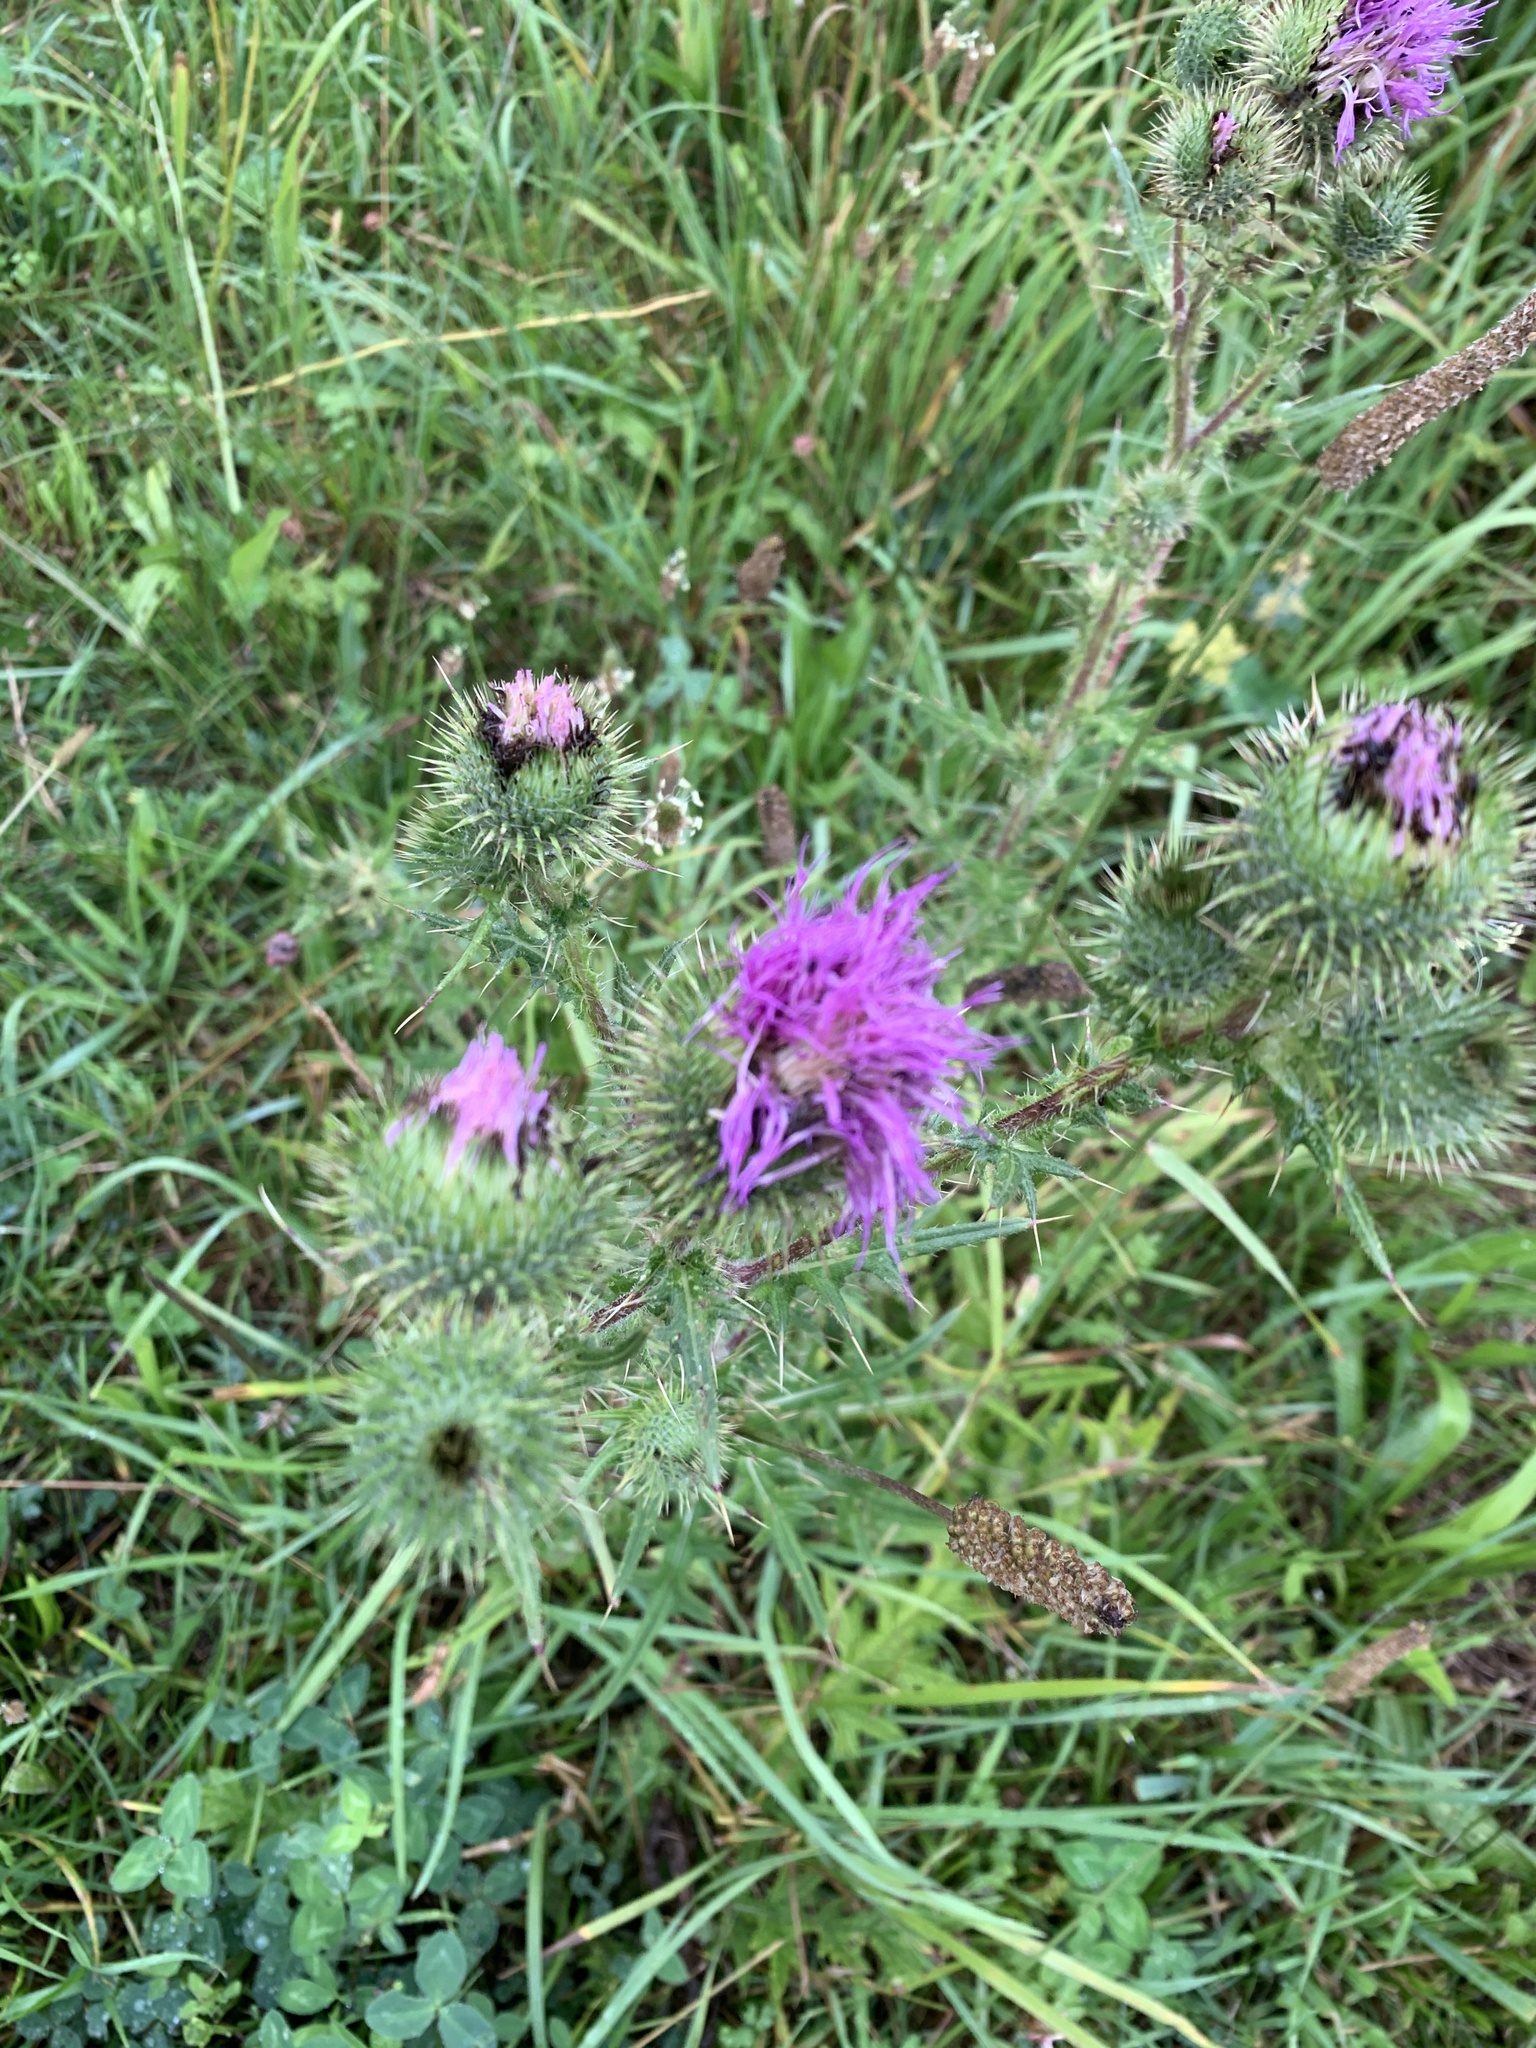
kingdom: Plantae
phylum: Tracheophyta
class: Magnoliopsida
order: Asterales
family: Asteraceae
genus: Cirsium
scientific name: Cirsium vulgare
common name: Bull thistle
